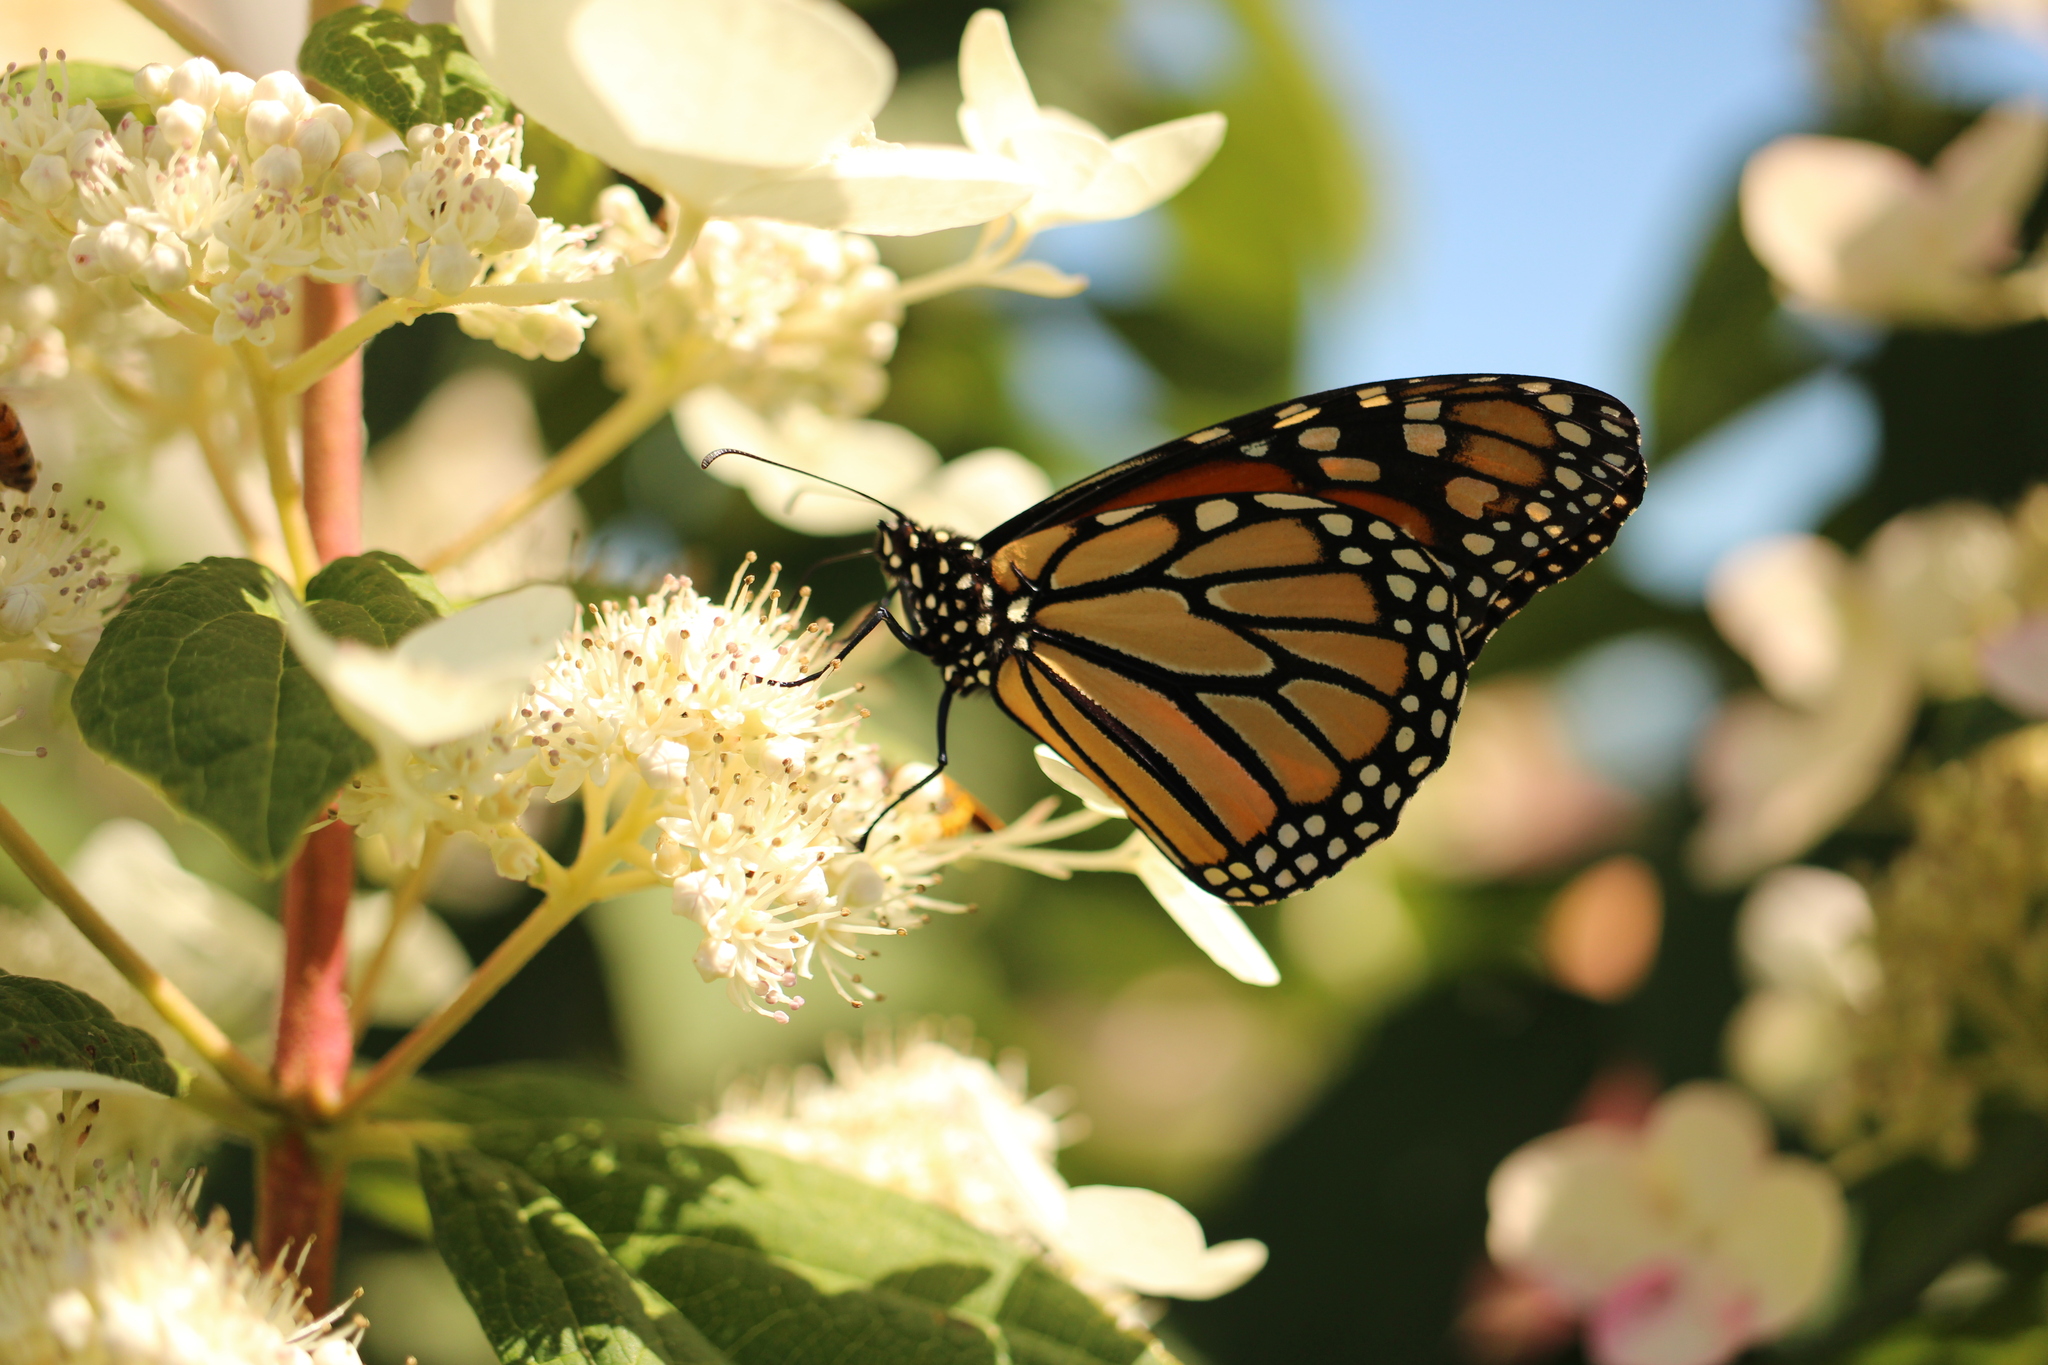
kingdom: Animalia
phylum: Arthropoda
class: Insecta
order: Lepidoptera
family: Nymphalidae
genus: Danaus
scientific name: Danaus plexippus
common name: Monarch
